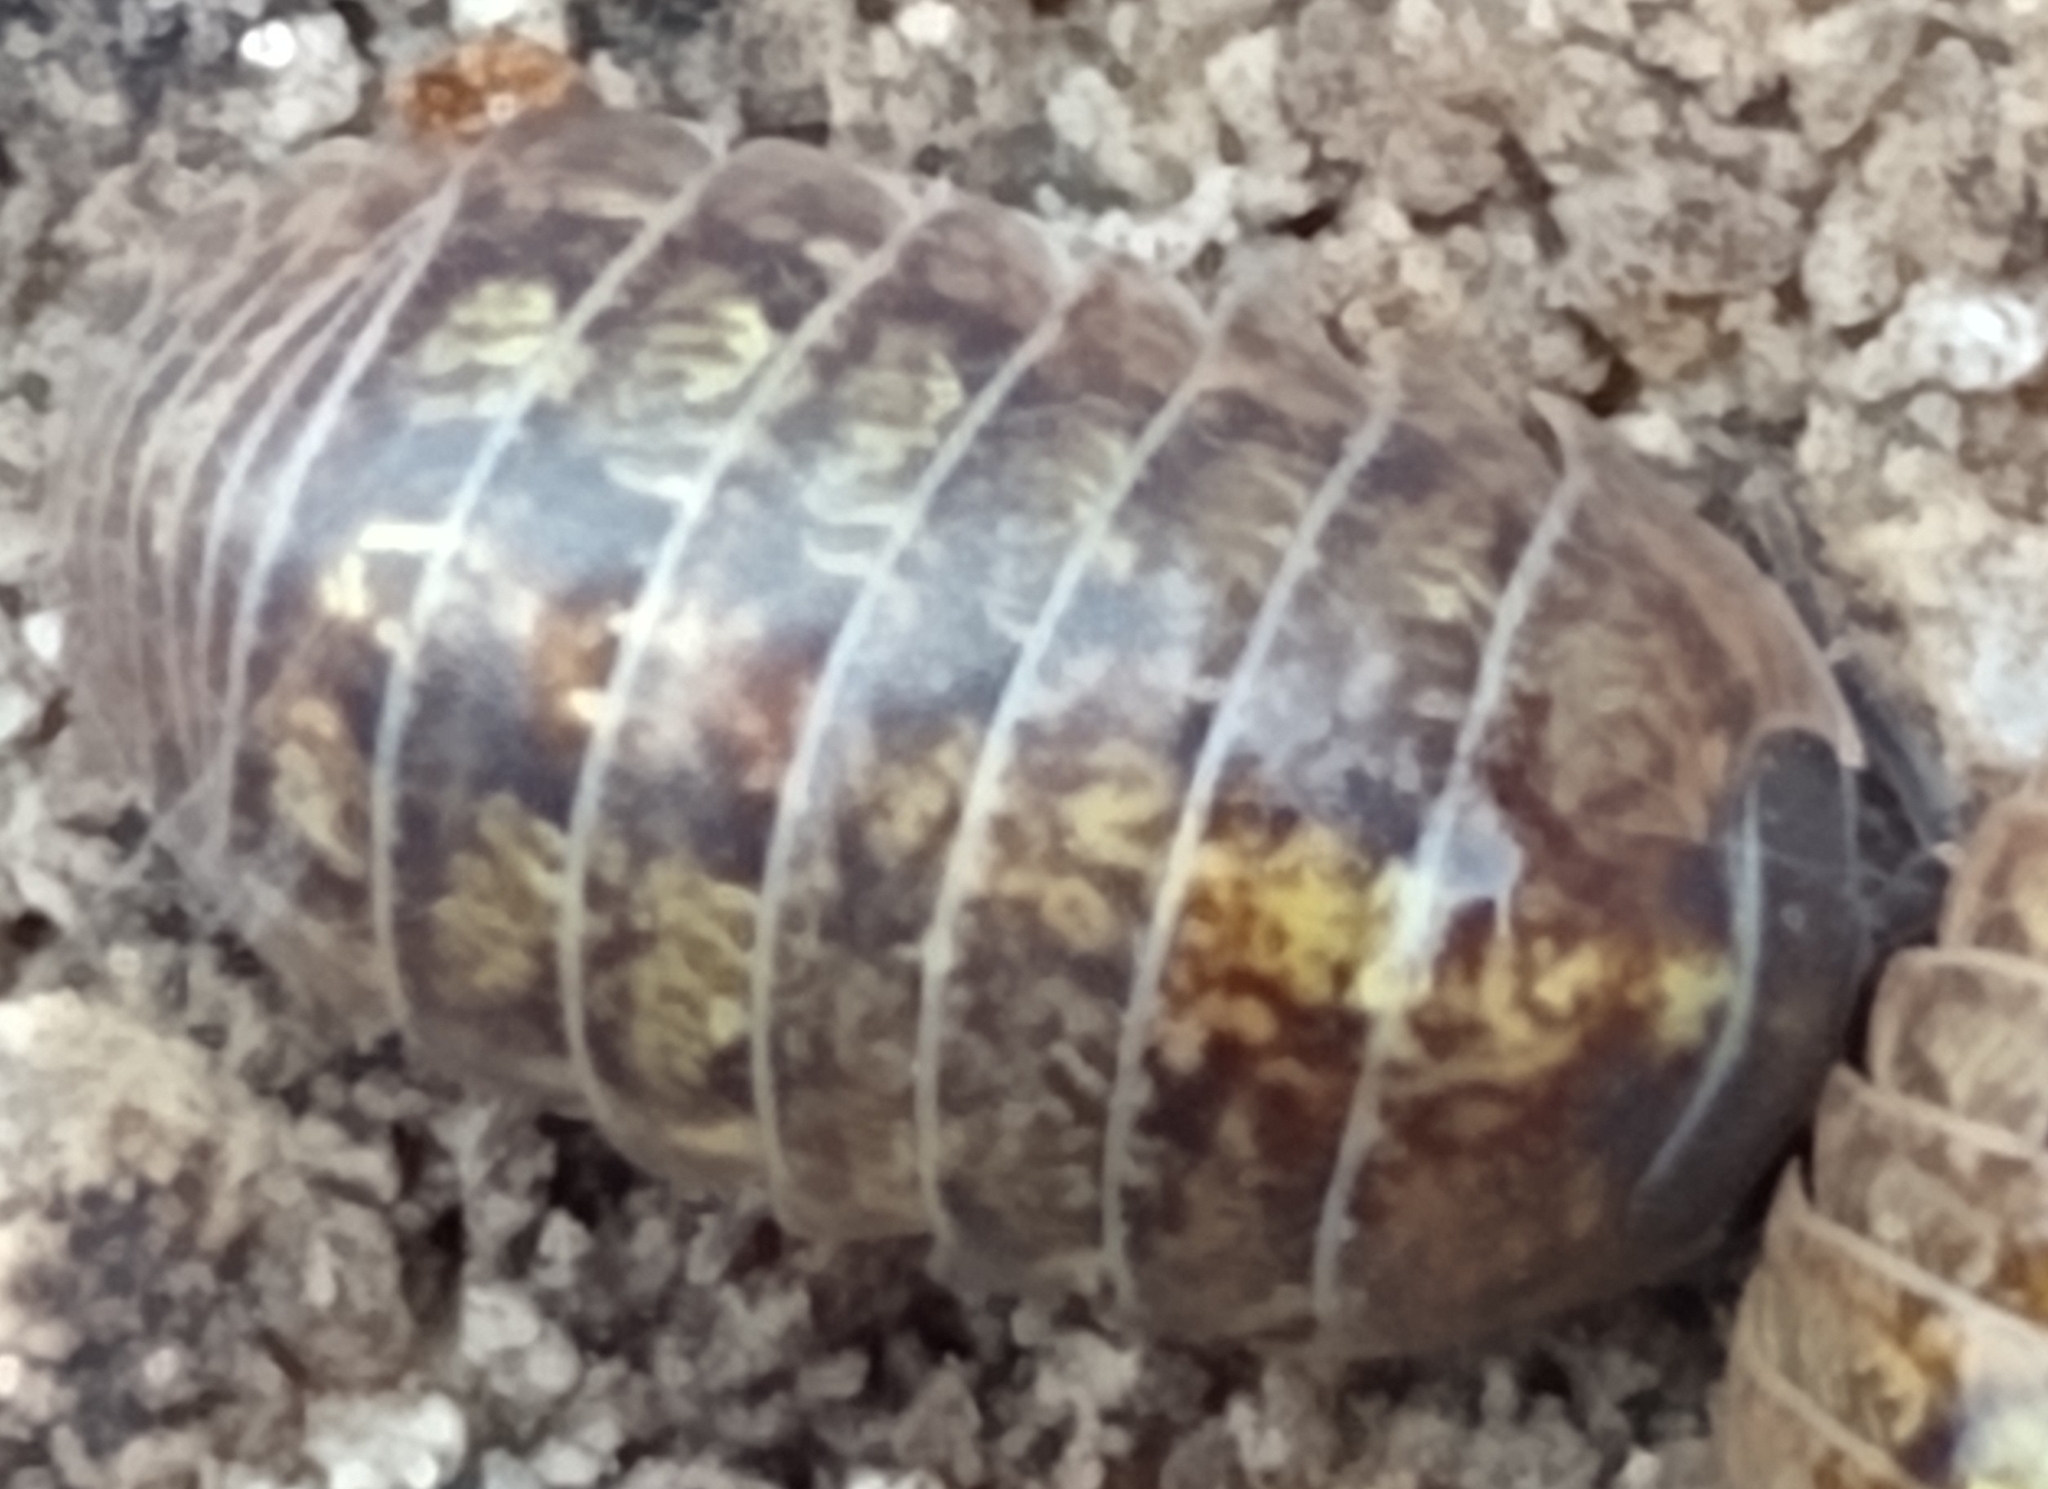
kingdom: Animalia
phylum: Arthropoda
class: Malacostraca
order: Isopoda
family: Armadillidiidae
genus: Armadillidium
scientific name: Armadillidium vulgare
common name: Common pill woodlouse
